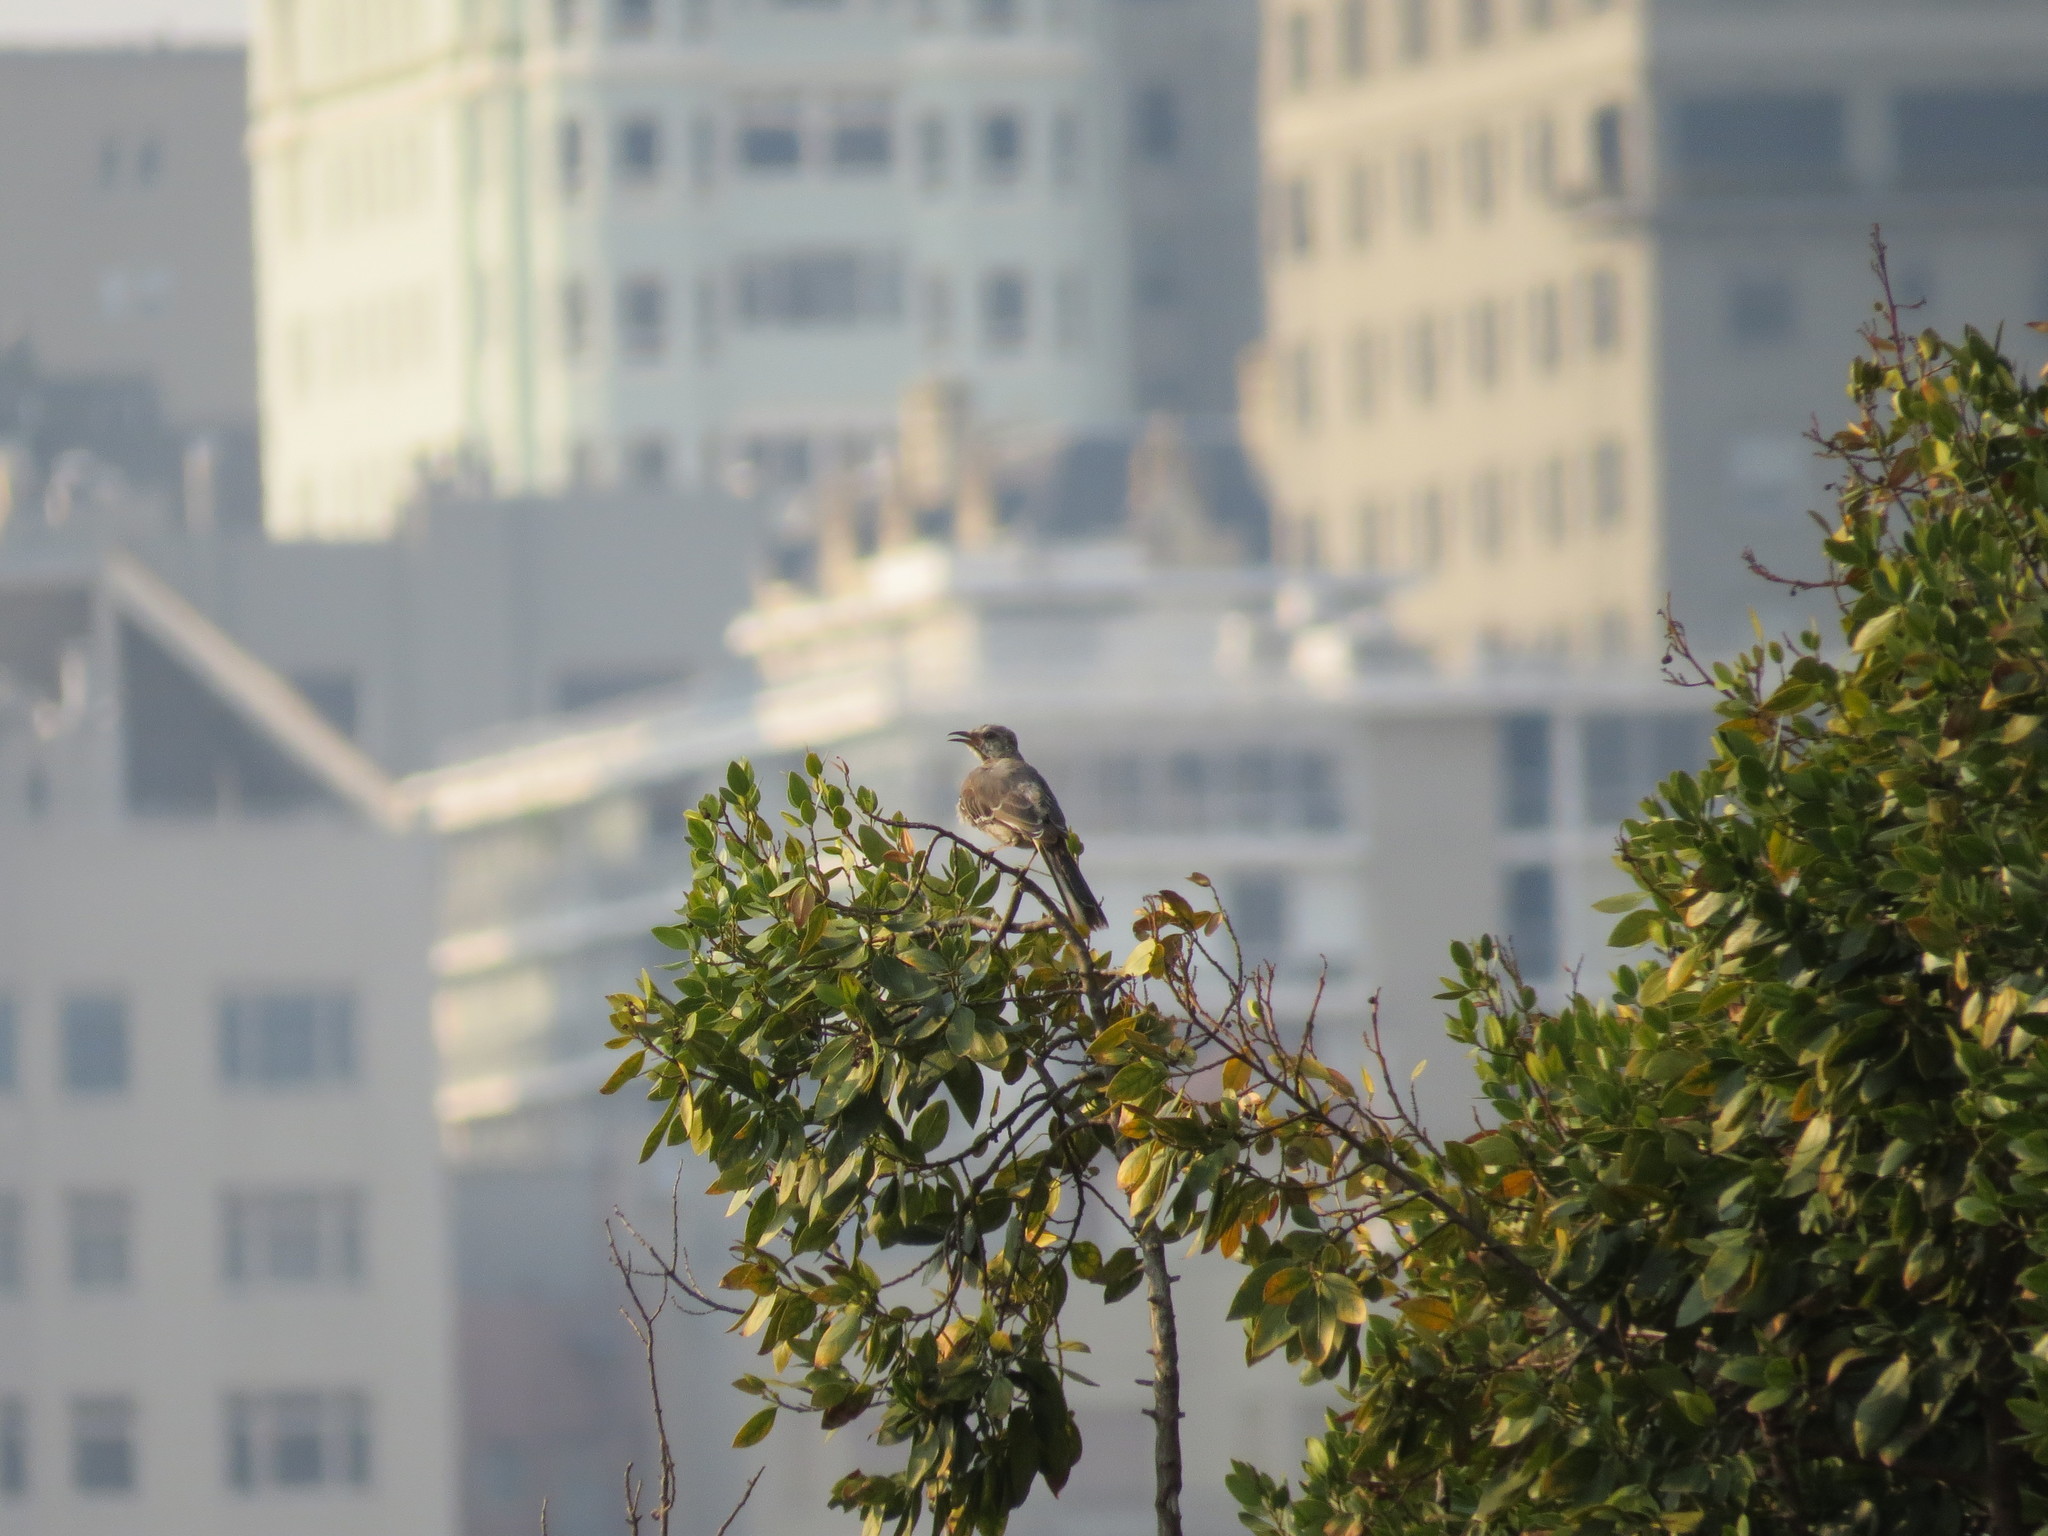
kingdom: Animalia
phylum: Chordata
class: Aves
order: Passeriformes
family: Mimidae
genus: Mimus
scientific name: Mimus polyglottos
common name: Northern mockingbird
